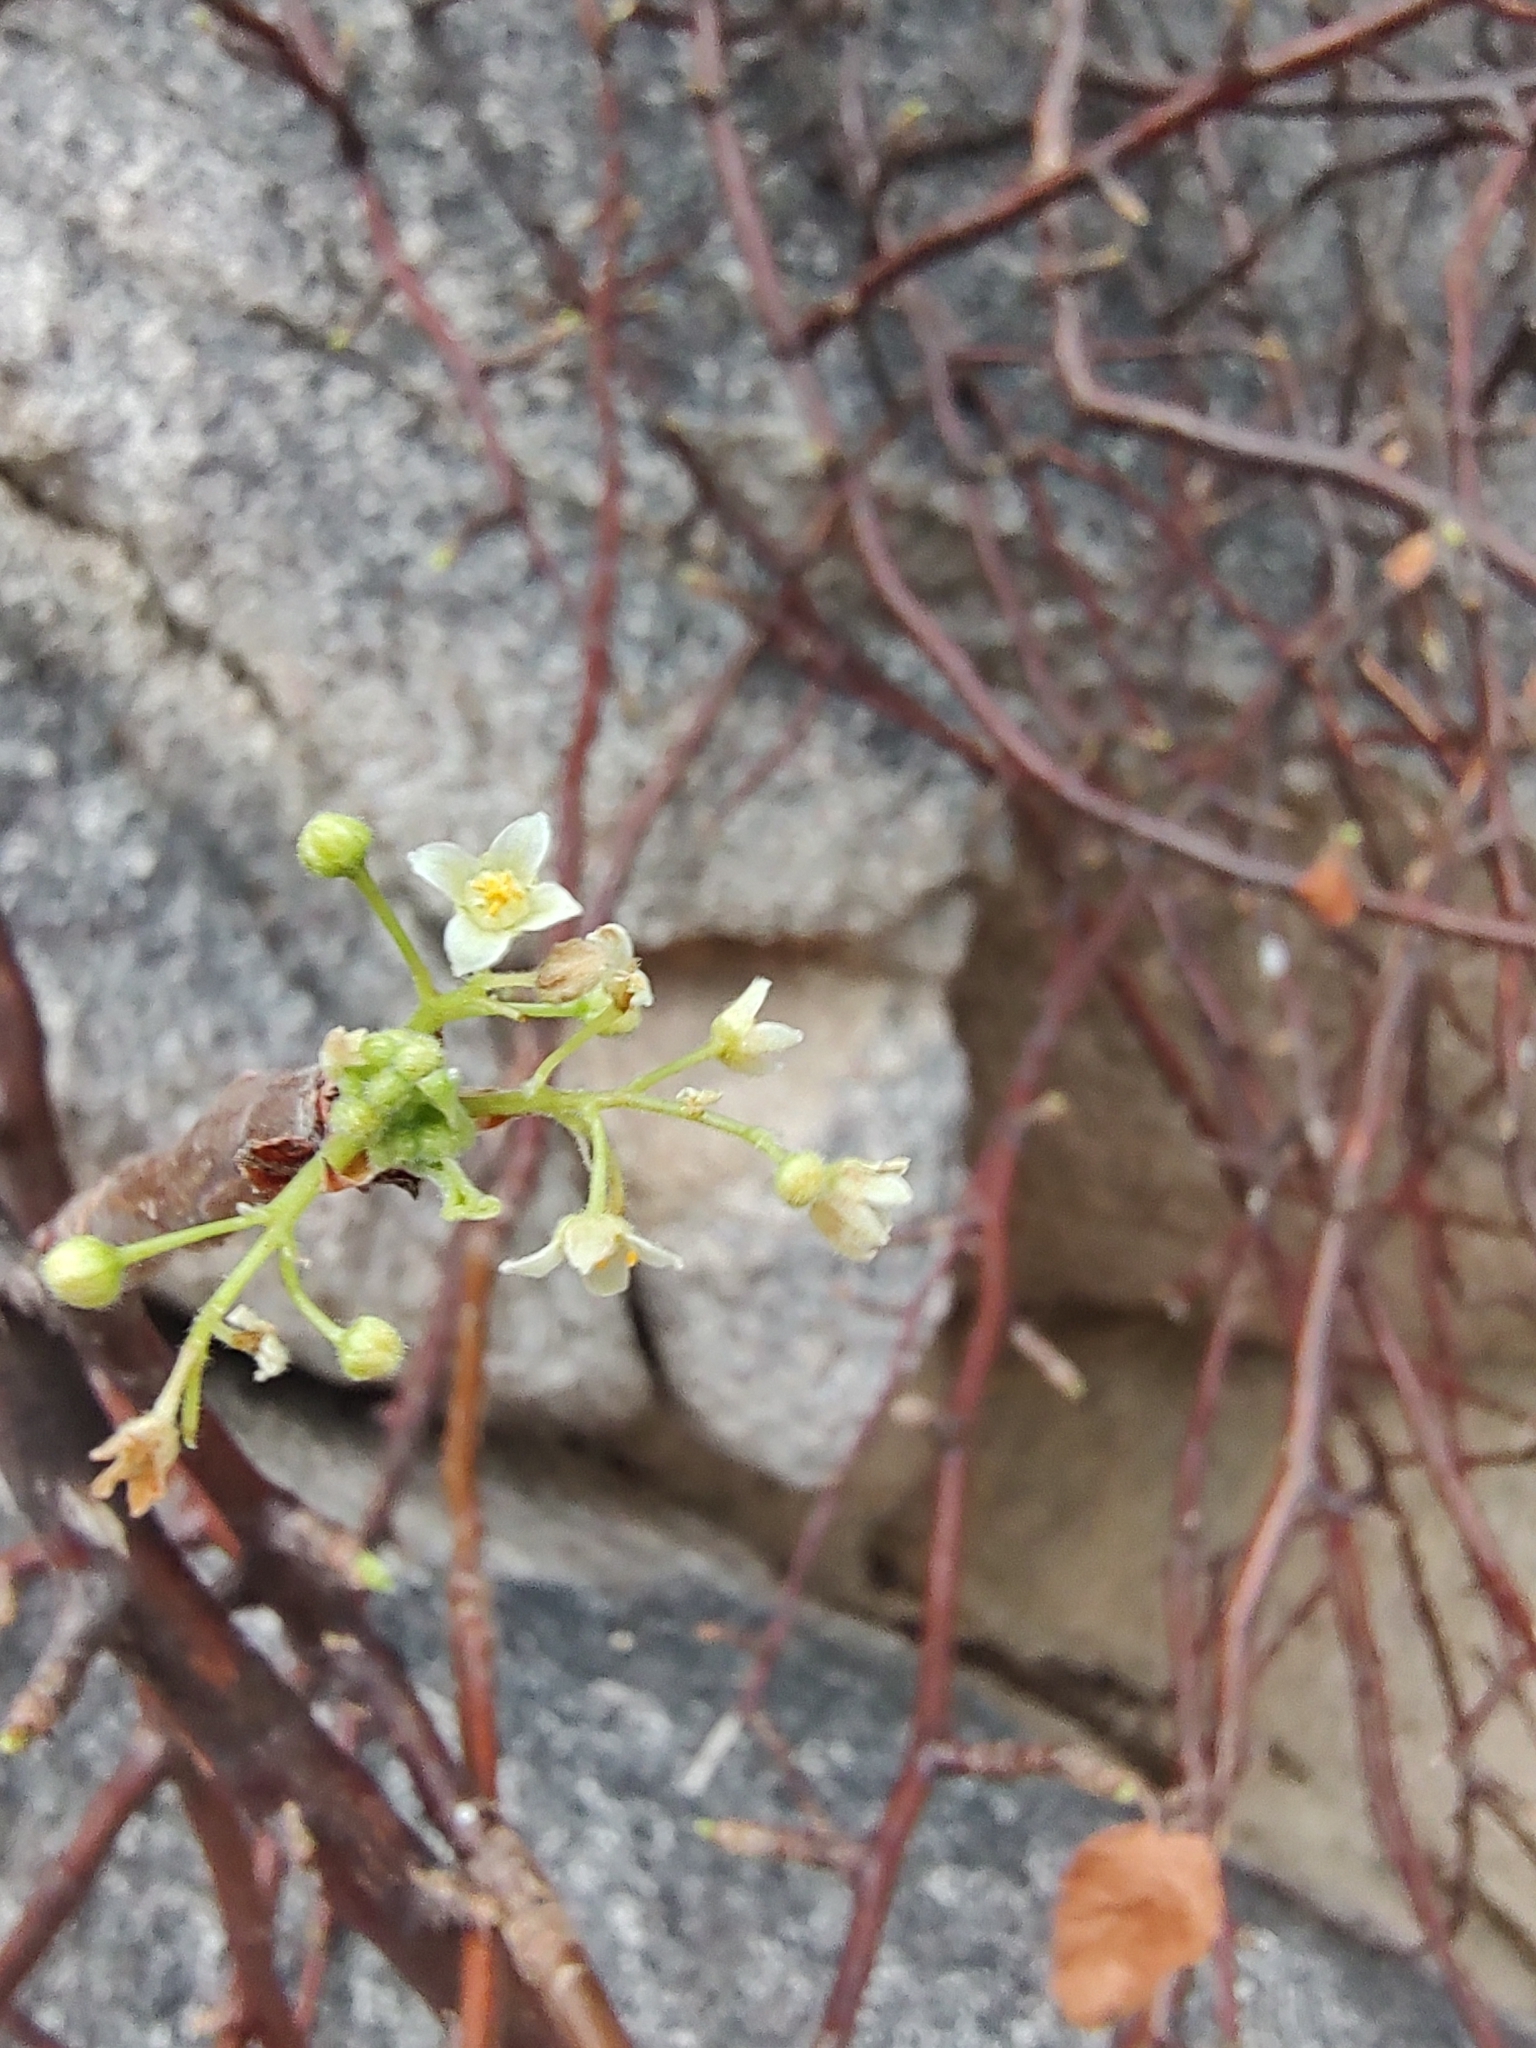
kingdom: Plantae
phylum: Tracheophyta
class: Magnoliopsida
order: Sapindales
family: Burseraceae
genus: Bursera
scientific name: Bursera rupicola
